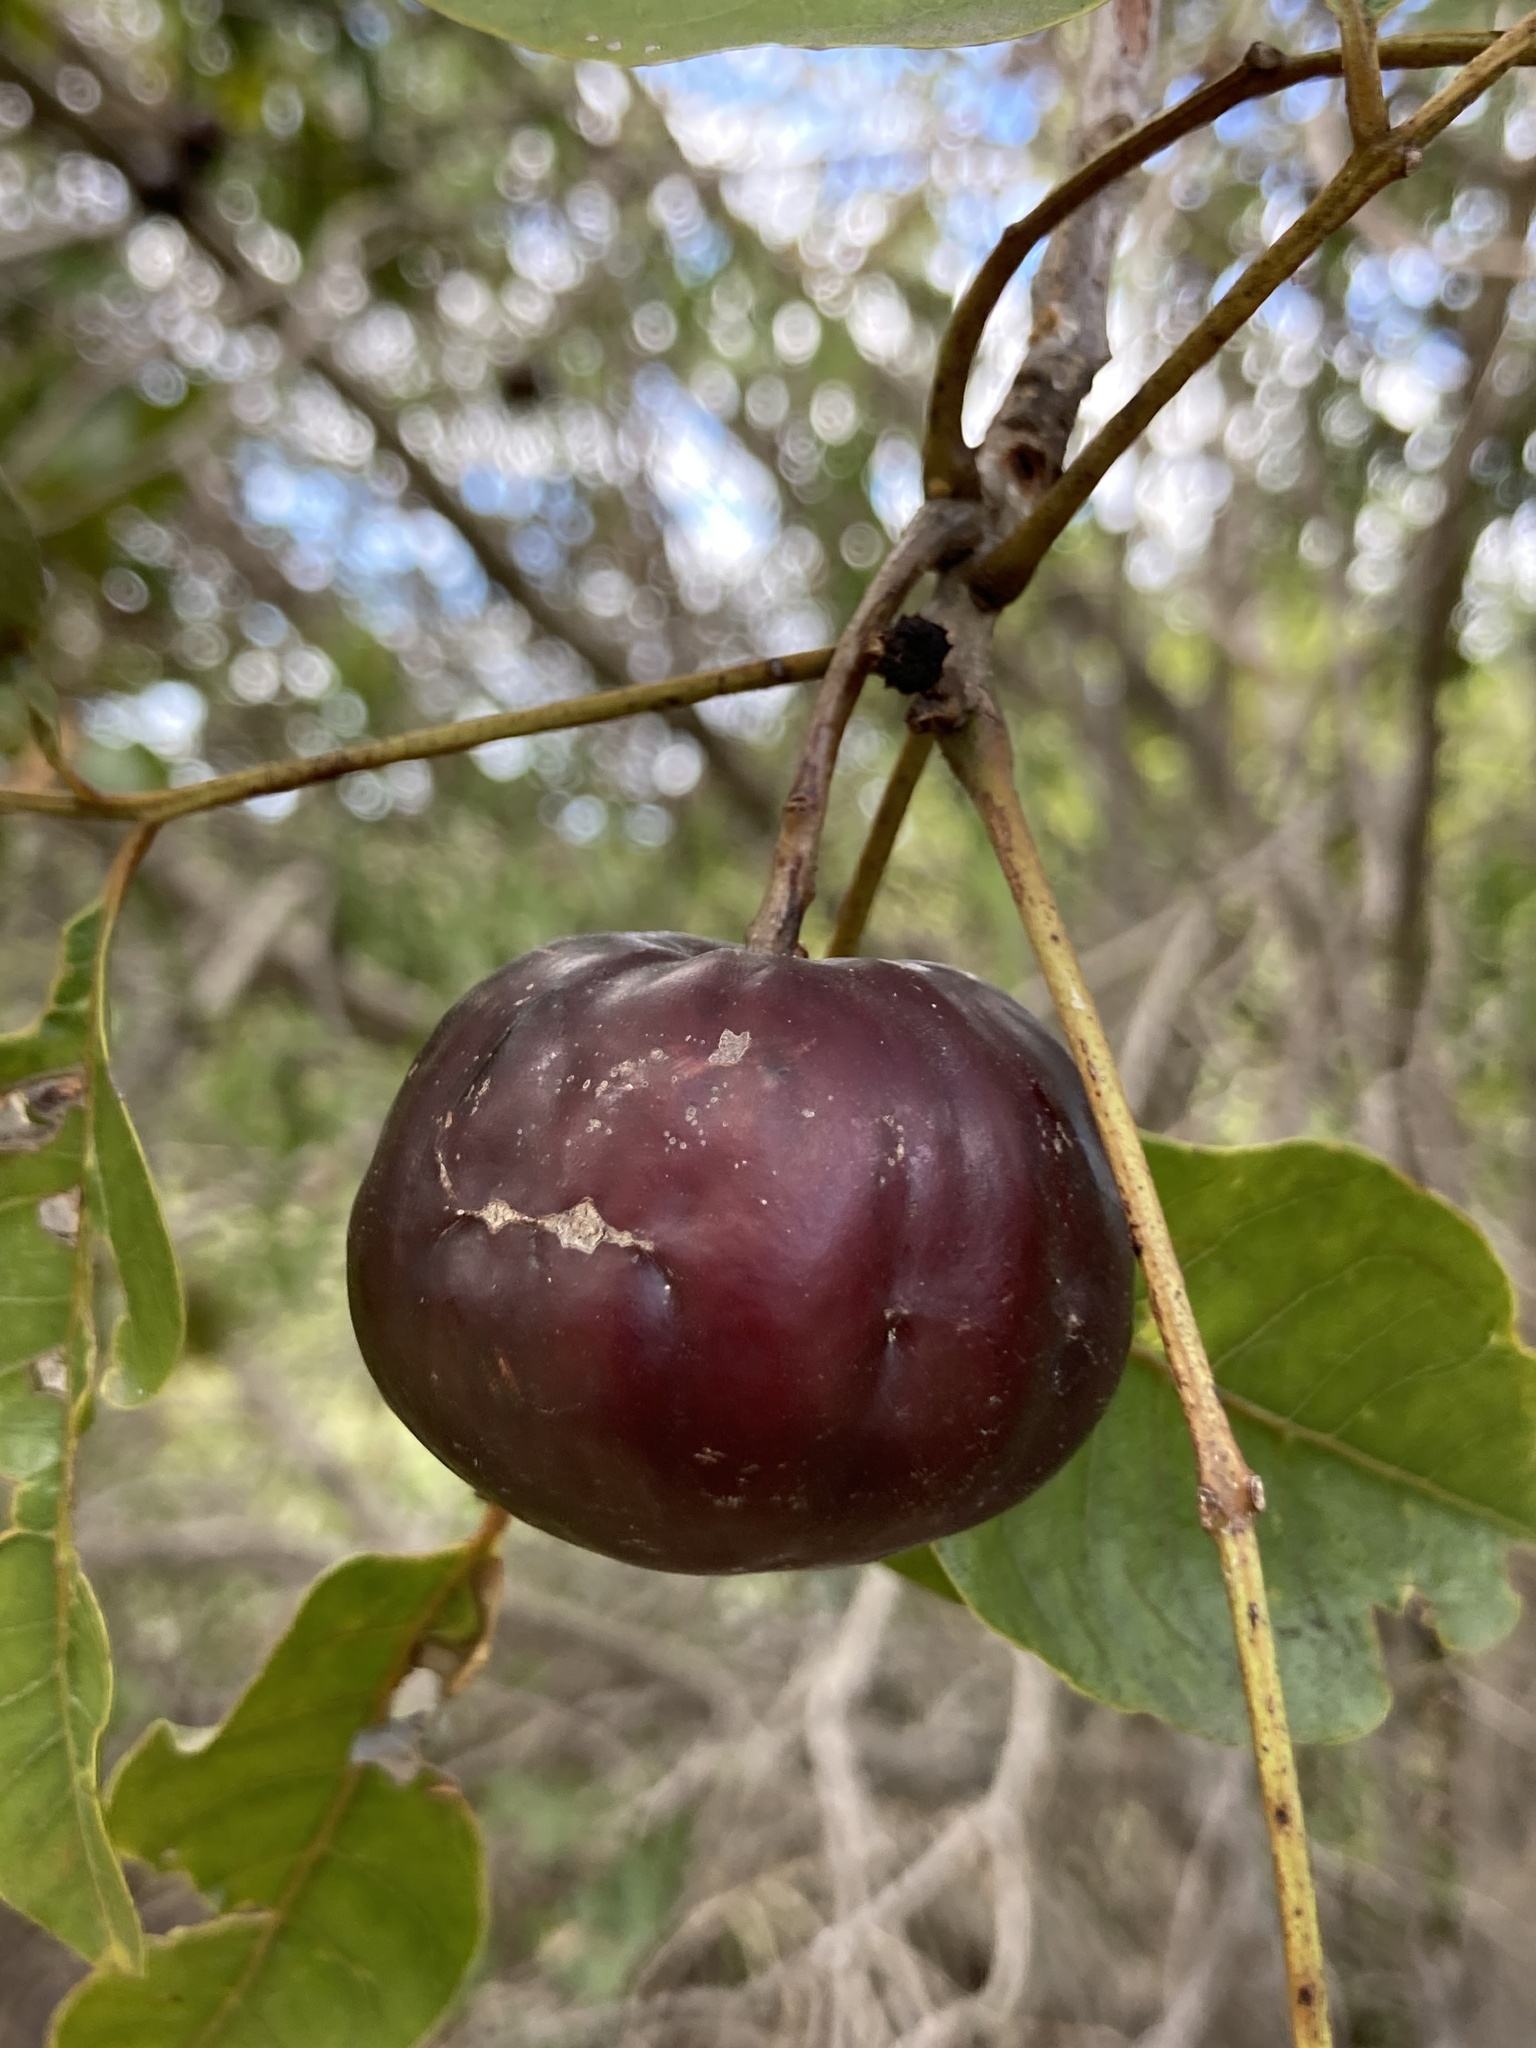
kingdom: Plantae
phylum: Tracheophyta
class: Magnoliopsida
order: Sapindales
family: Anacardiaceae
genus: Pleiogynium
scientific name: Pleiogynium timoriense
